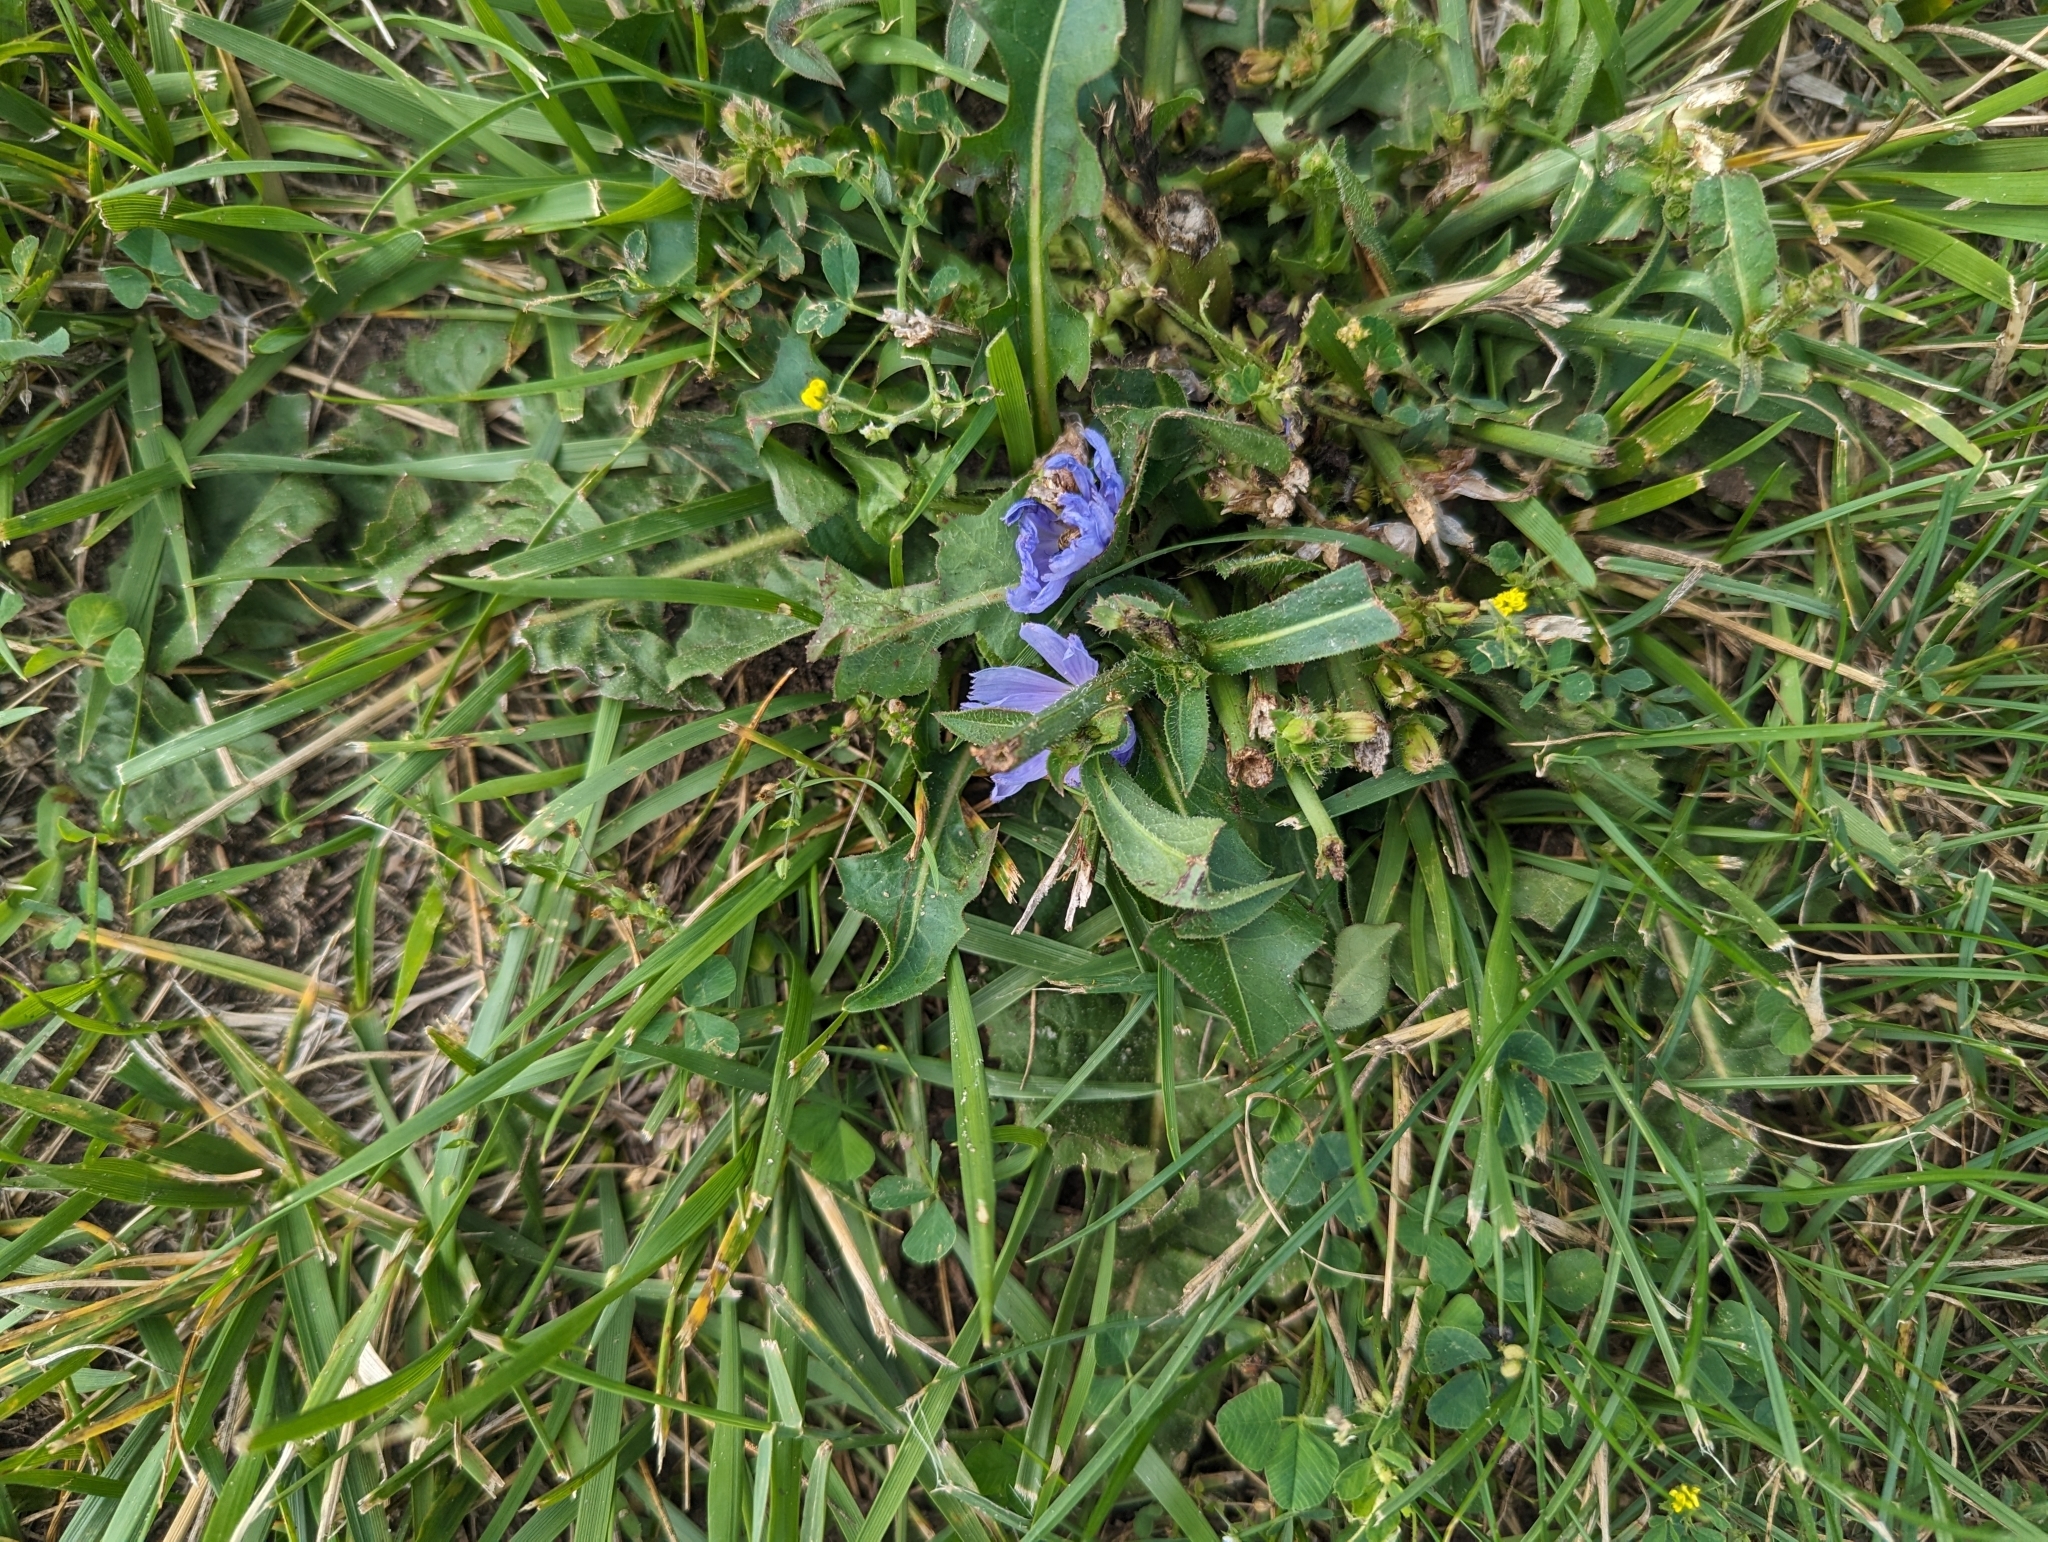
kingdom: Plantae
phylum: Tracheophyta
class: Magnoliopsida
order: Asterales
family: Asteraceae
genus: Cichorium
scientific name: Cichorium intybus
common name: Chicory
